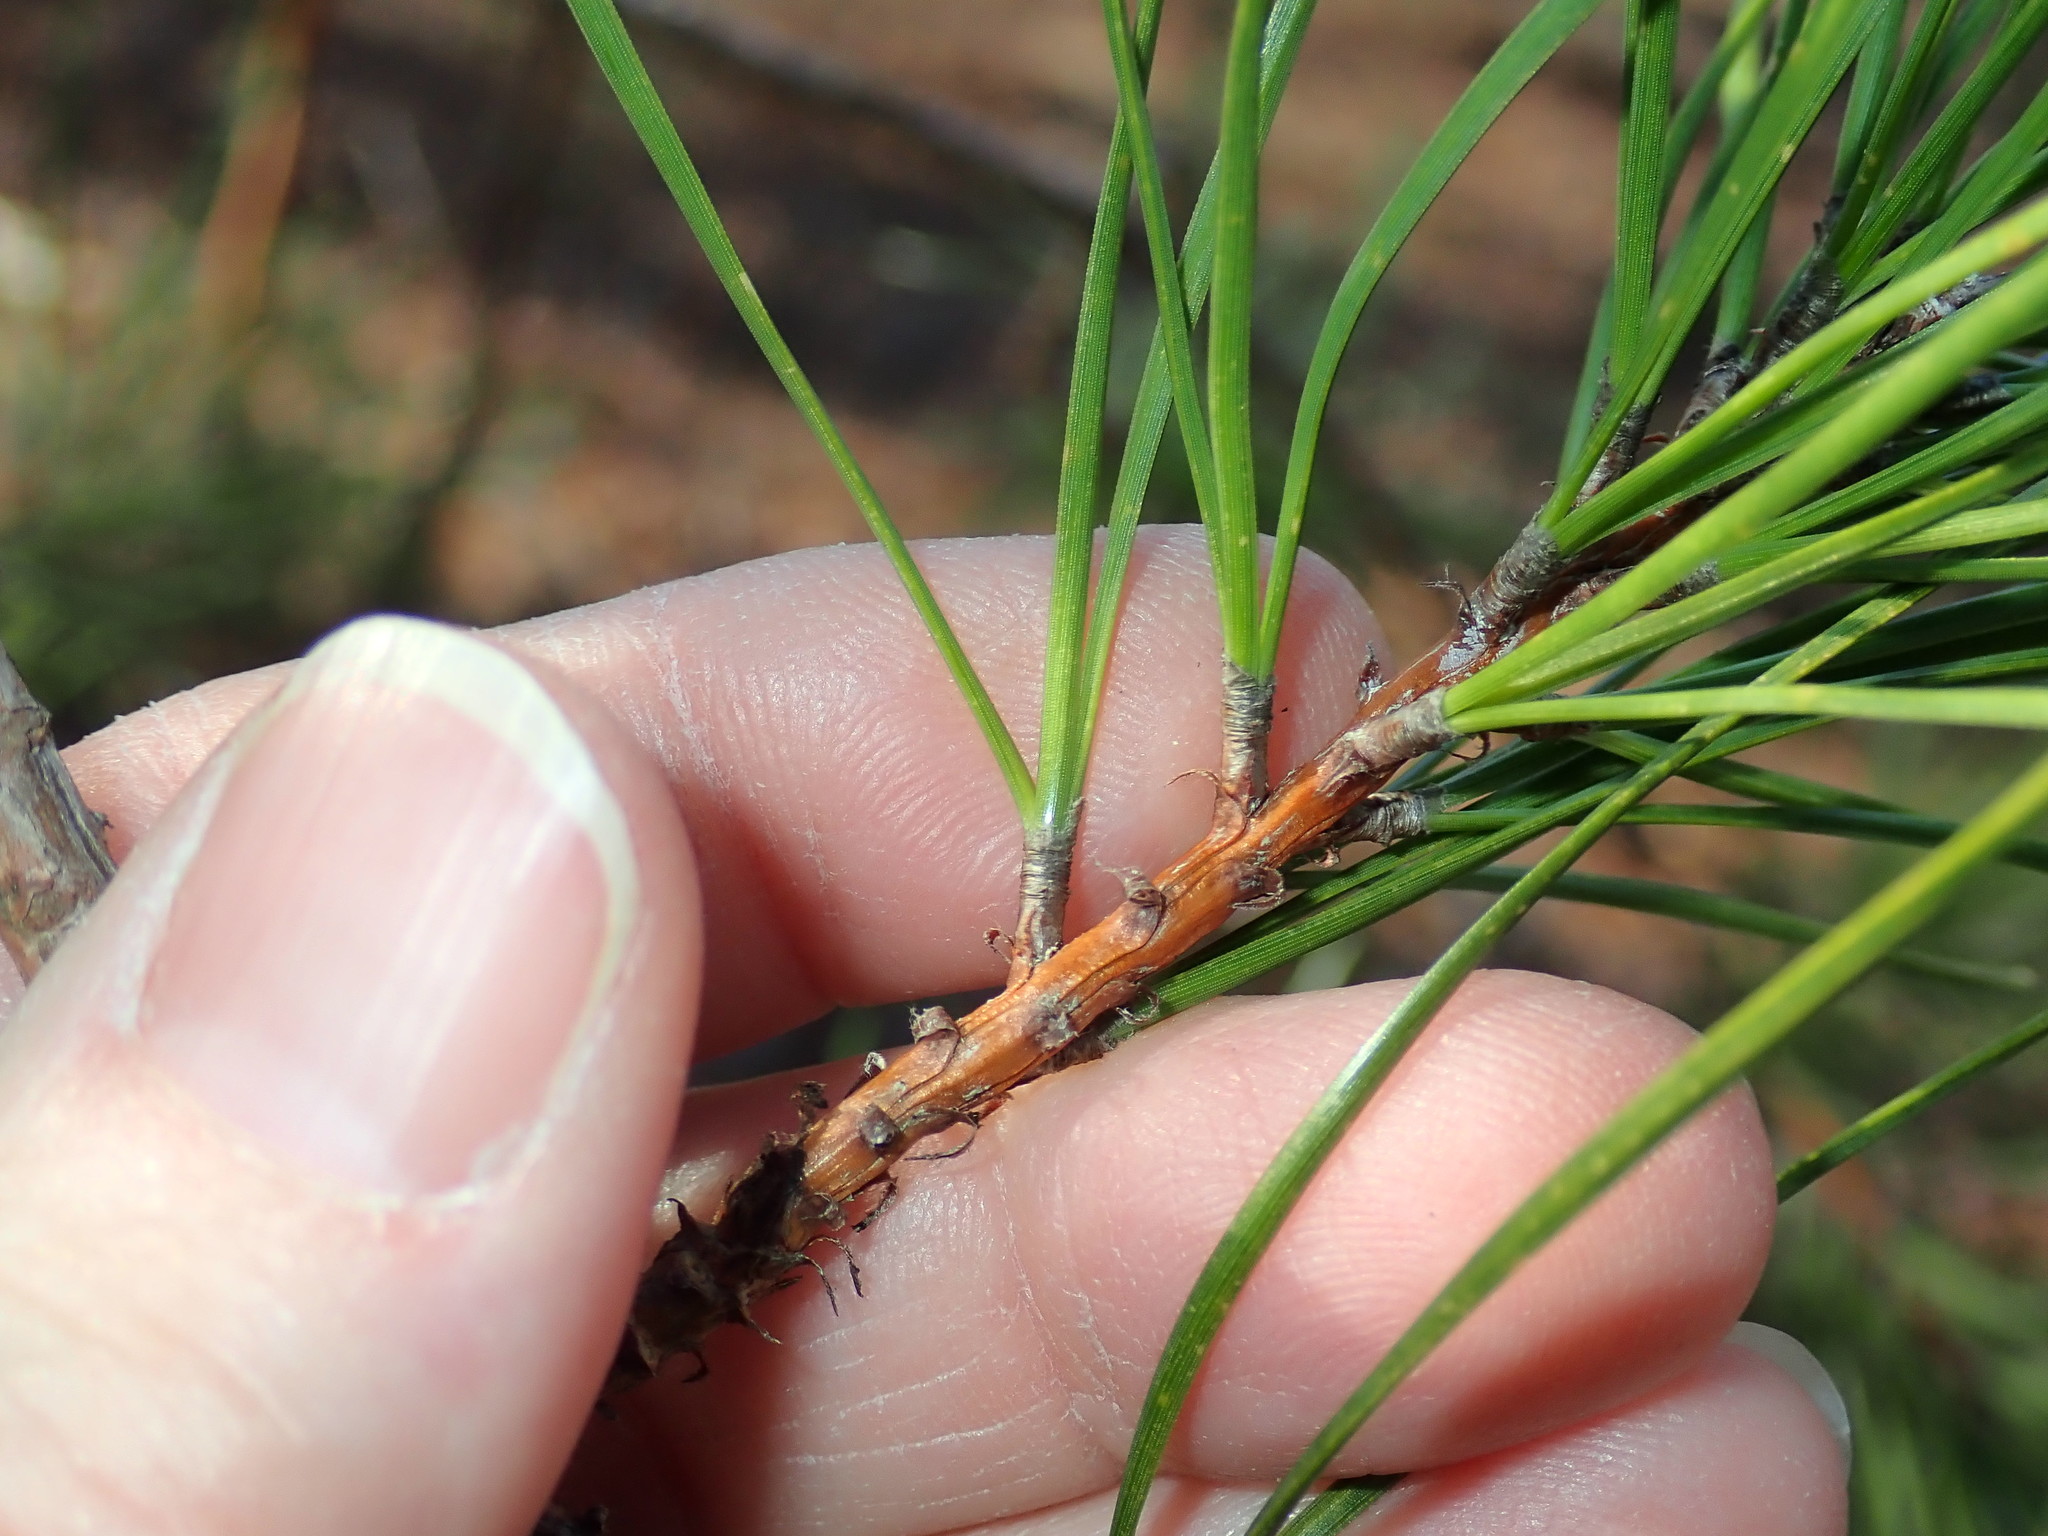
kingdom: Plantae
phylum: Tracheophyta
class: Pinopsida
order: Pinales
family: Pinaceae
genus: Pinus
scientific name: Pinus rigida
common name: Pitch pine
